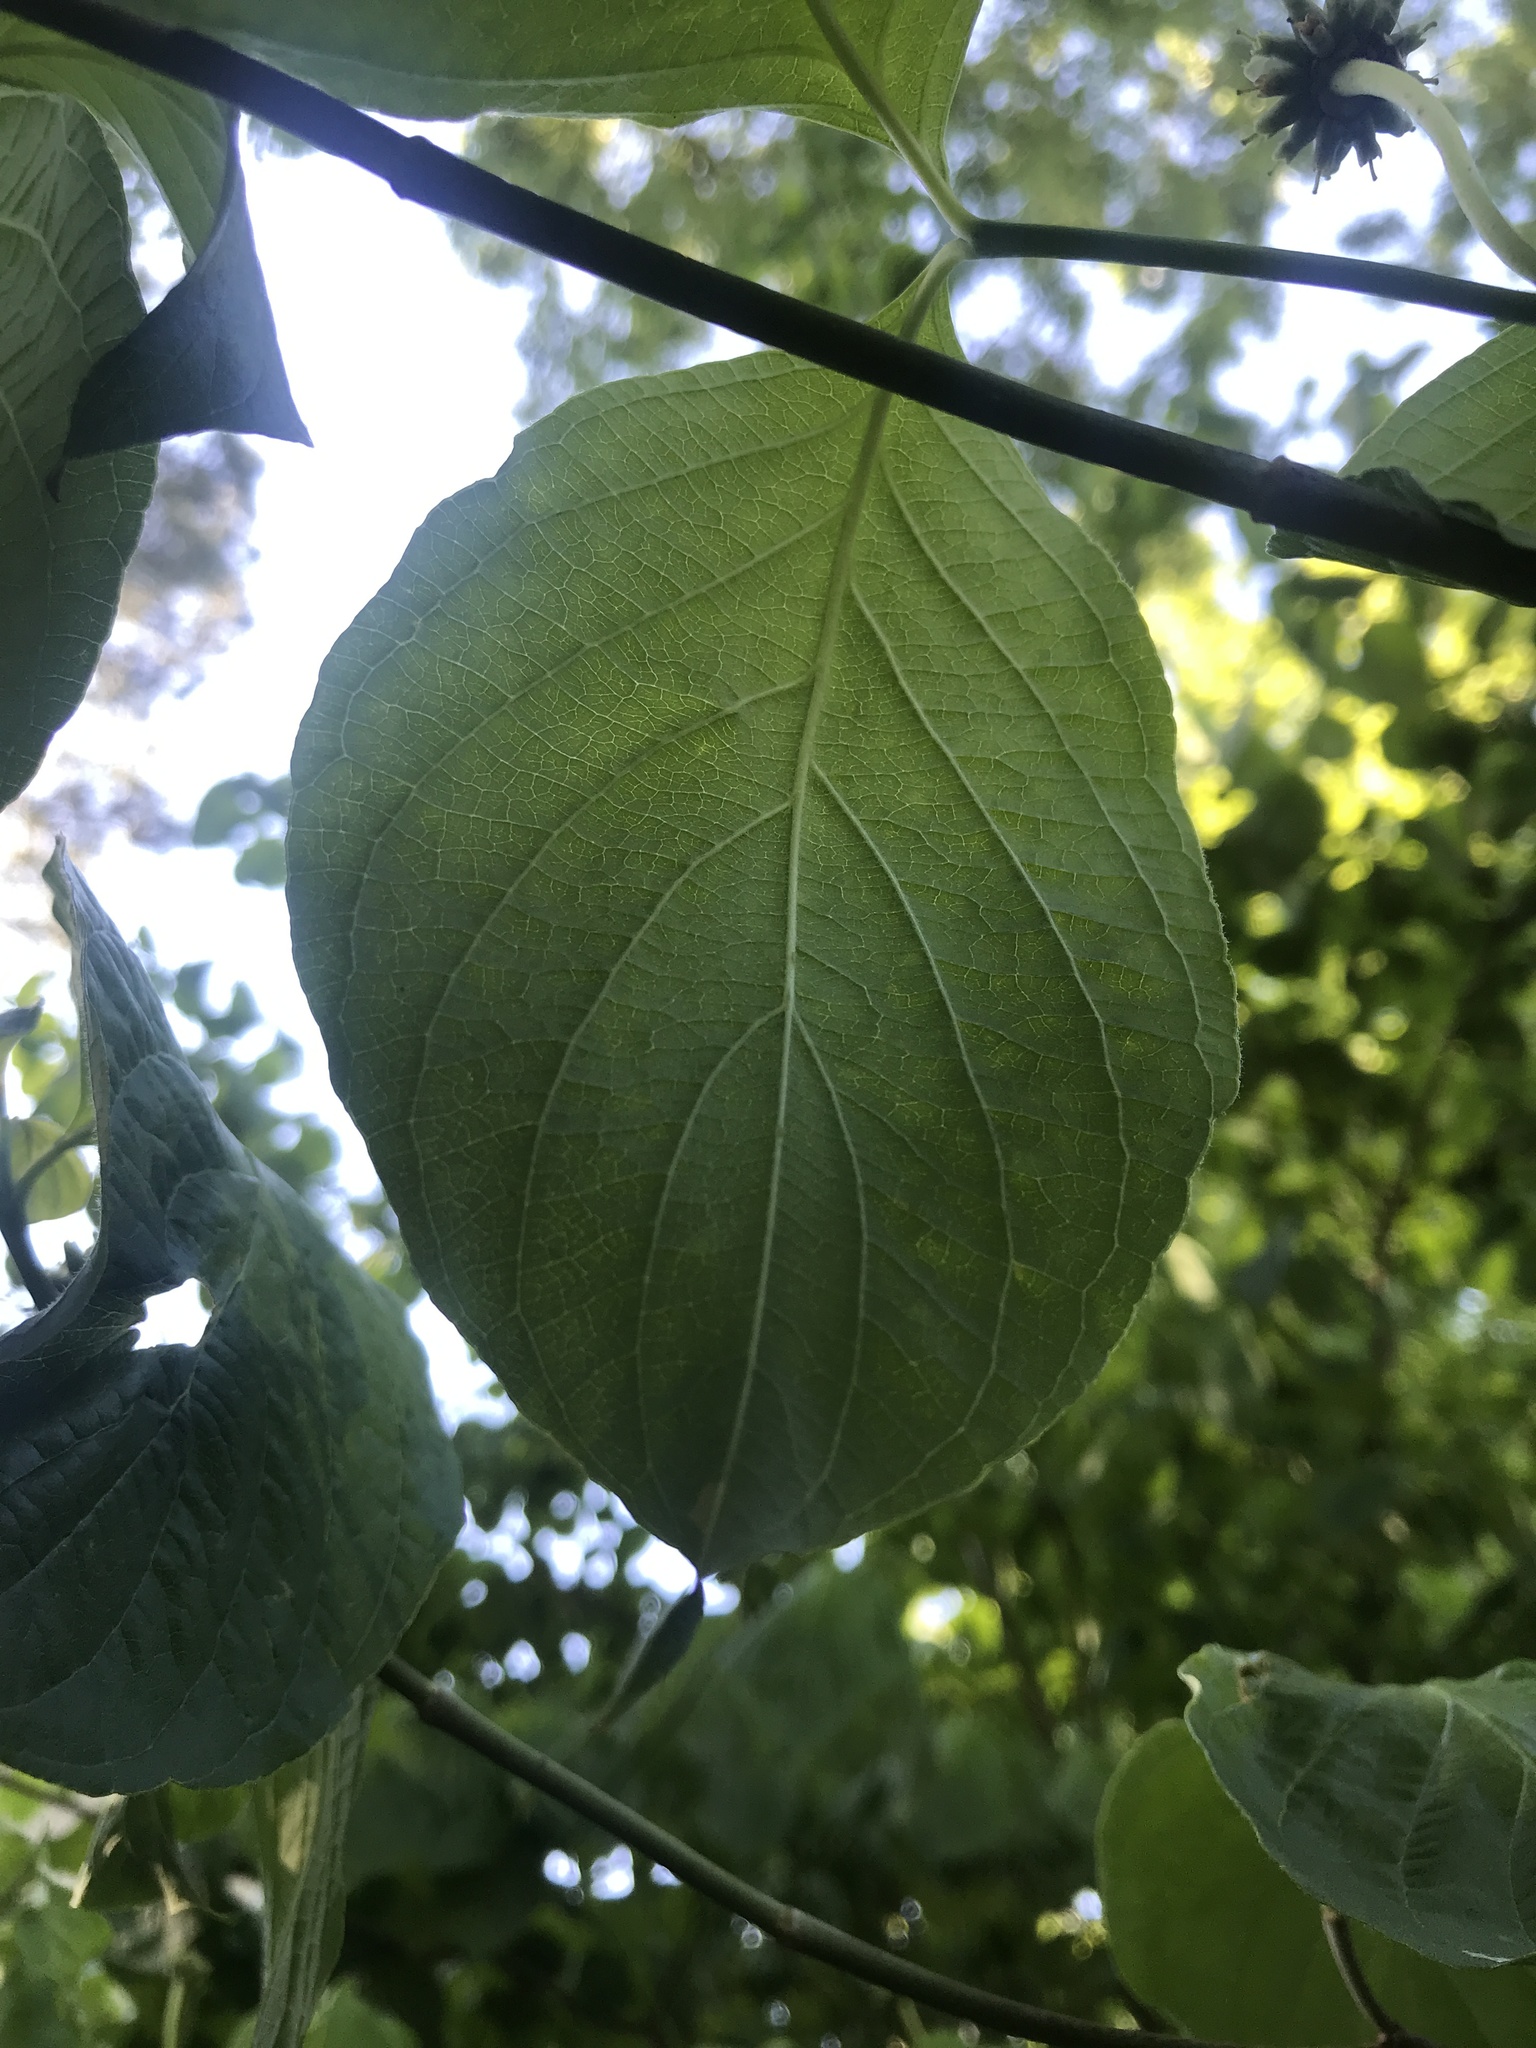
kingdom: Plantae
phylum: Tracheophyta
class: Magnoliopsida
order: Cornales
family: Cornaceae
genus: Cornus
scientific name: Cornus florida
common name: Flowering dogwood
